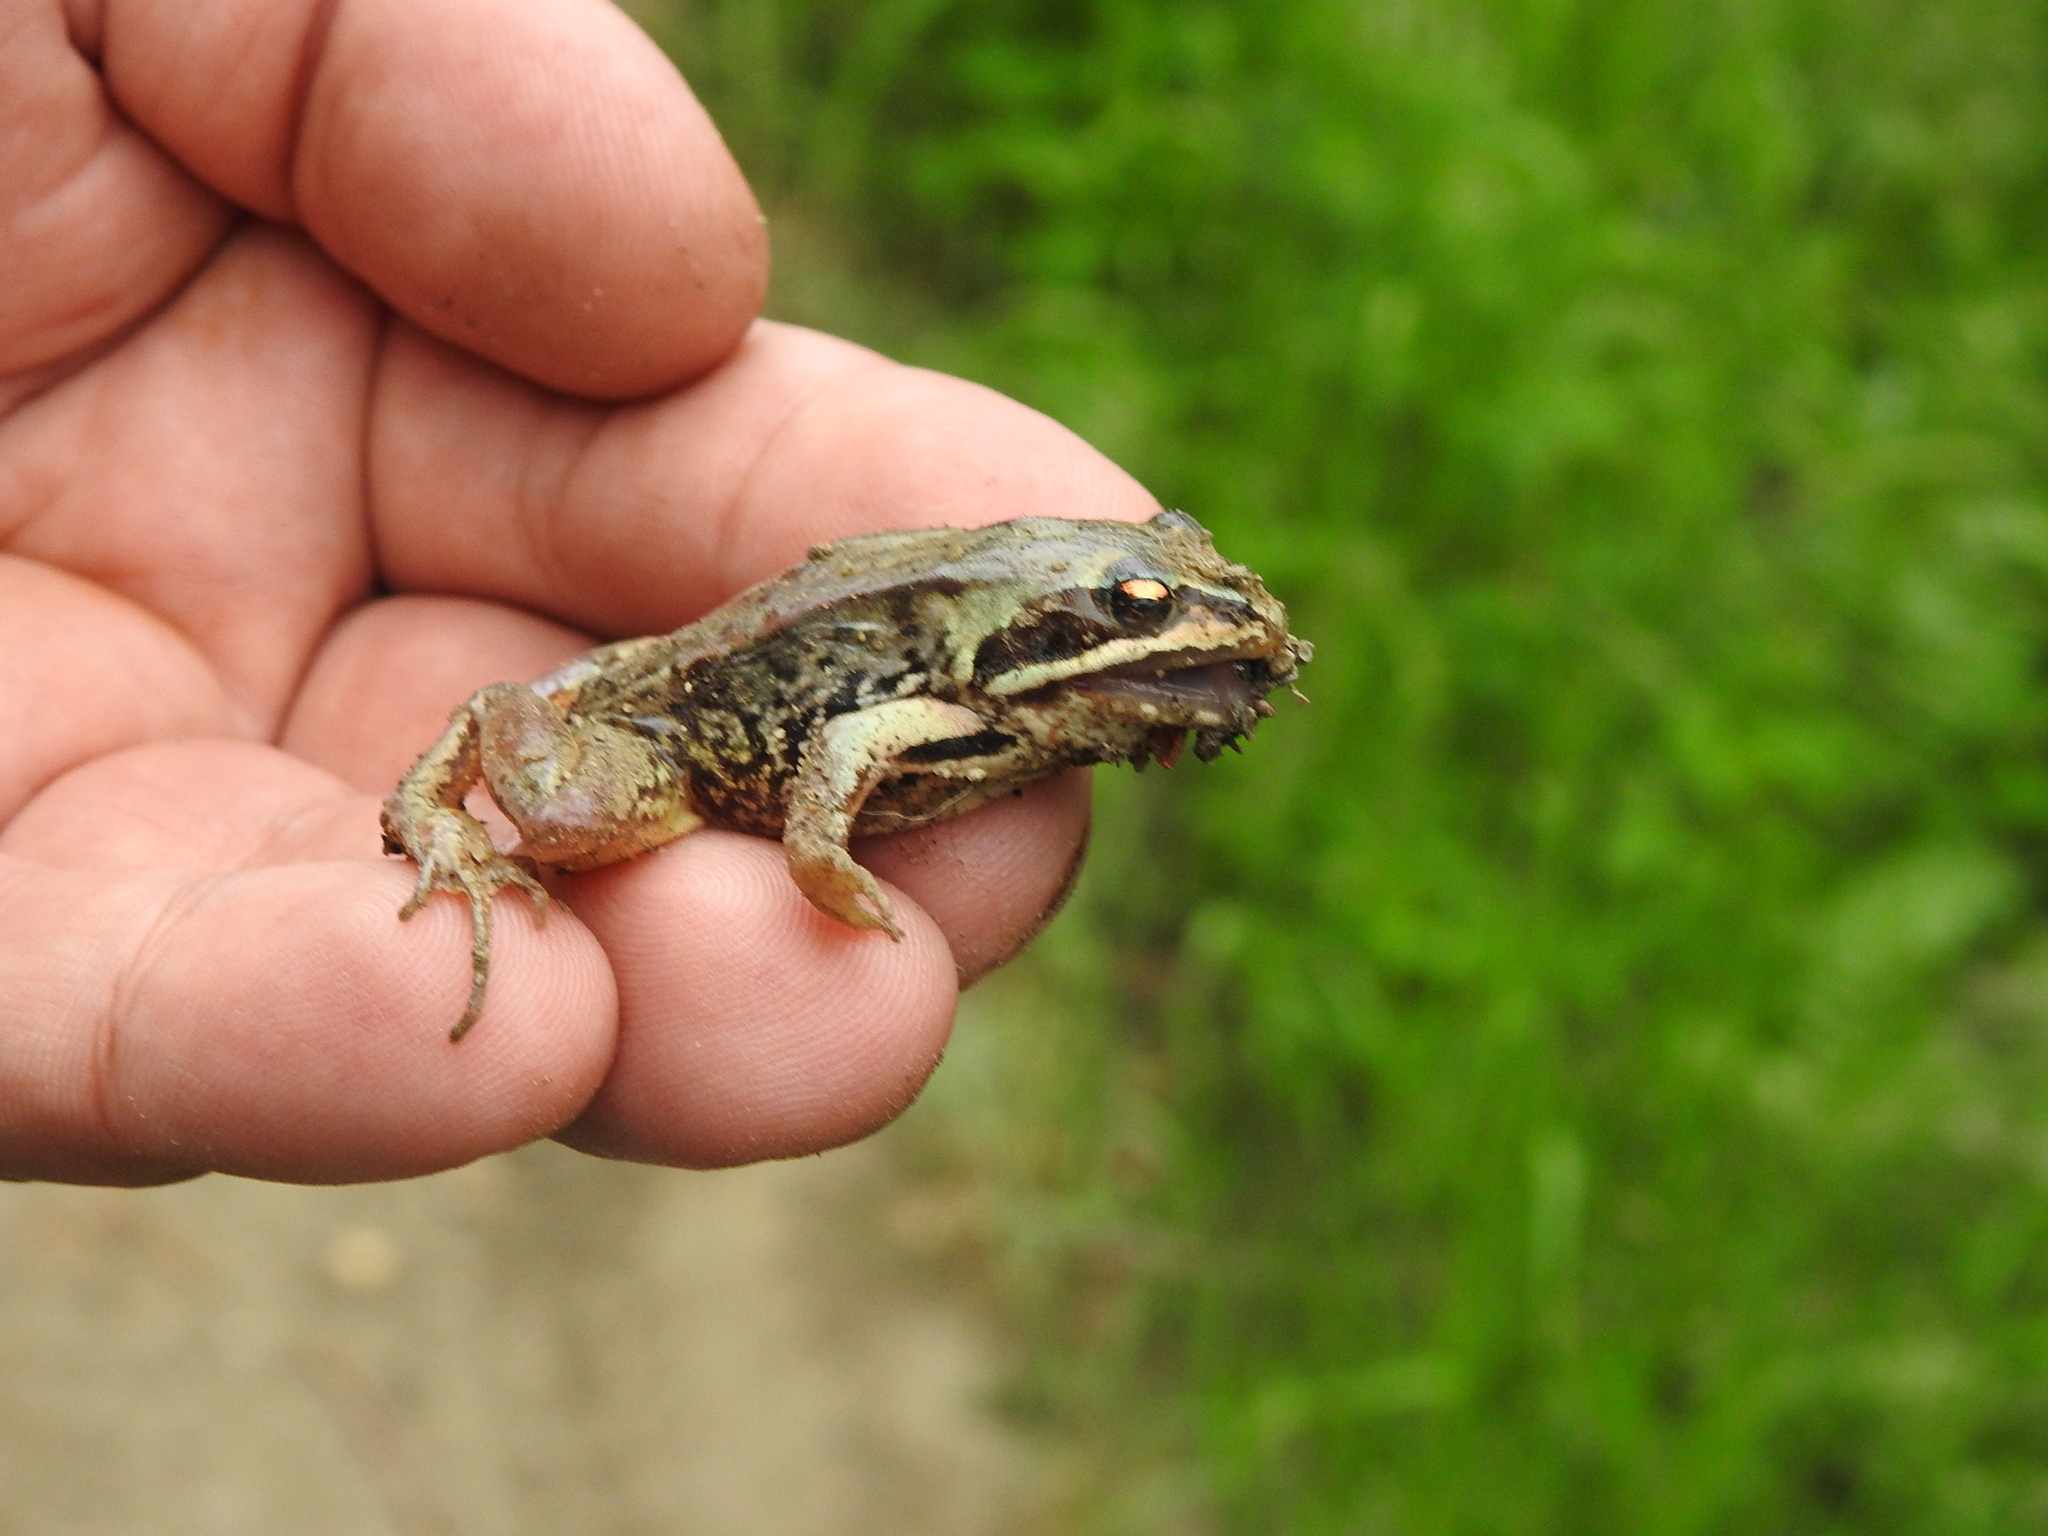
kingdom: Animalia
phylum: Chordata
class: Amphibia
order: Anura
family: Ranidae
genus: Rana
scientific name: Rana arvalis
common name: Moor frog
